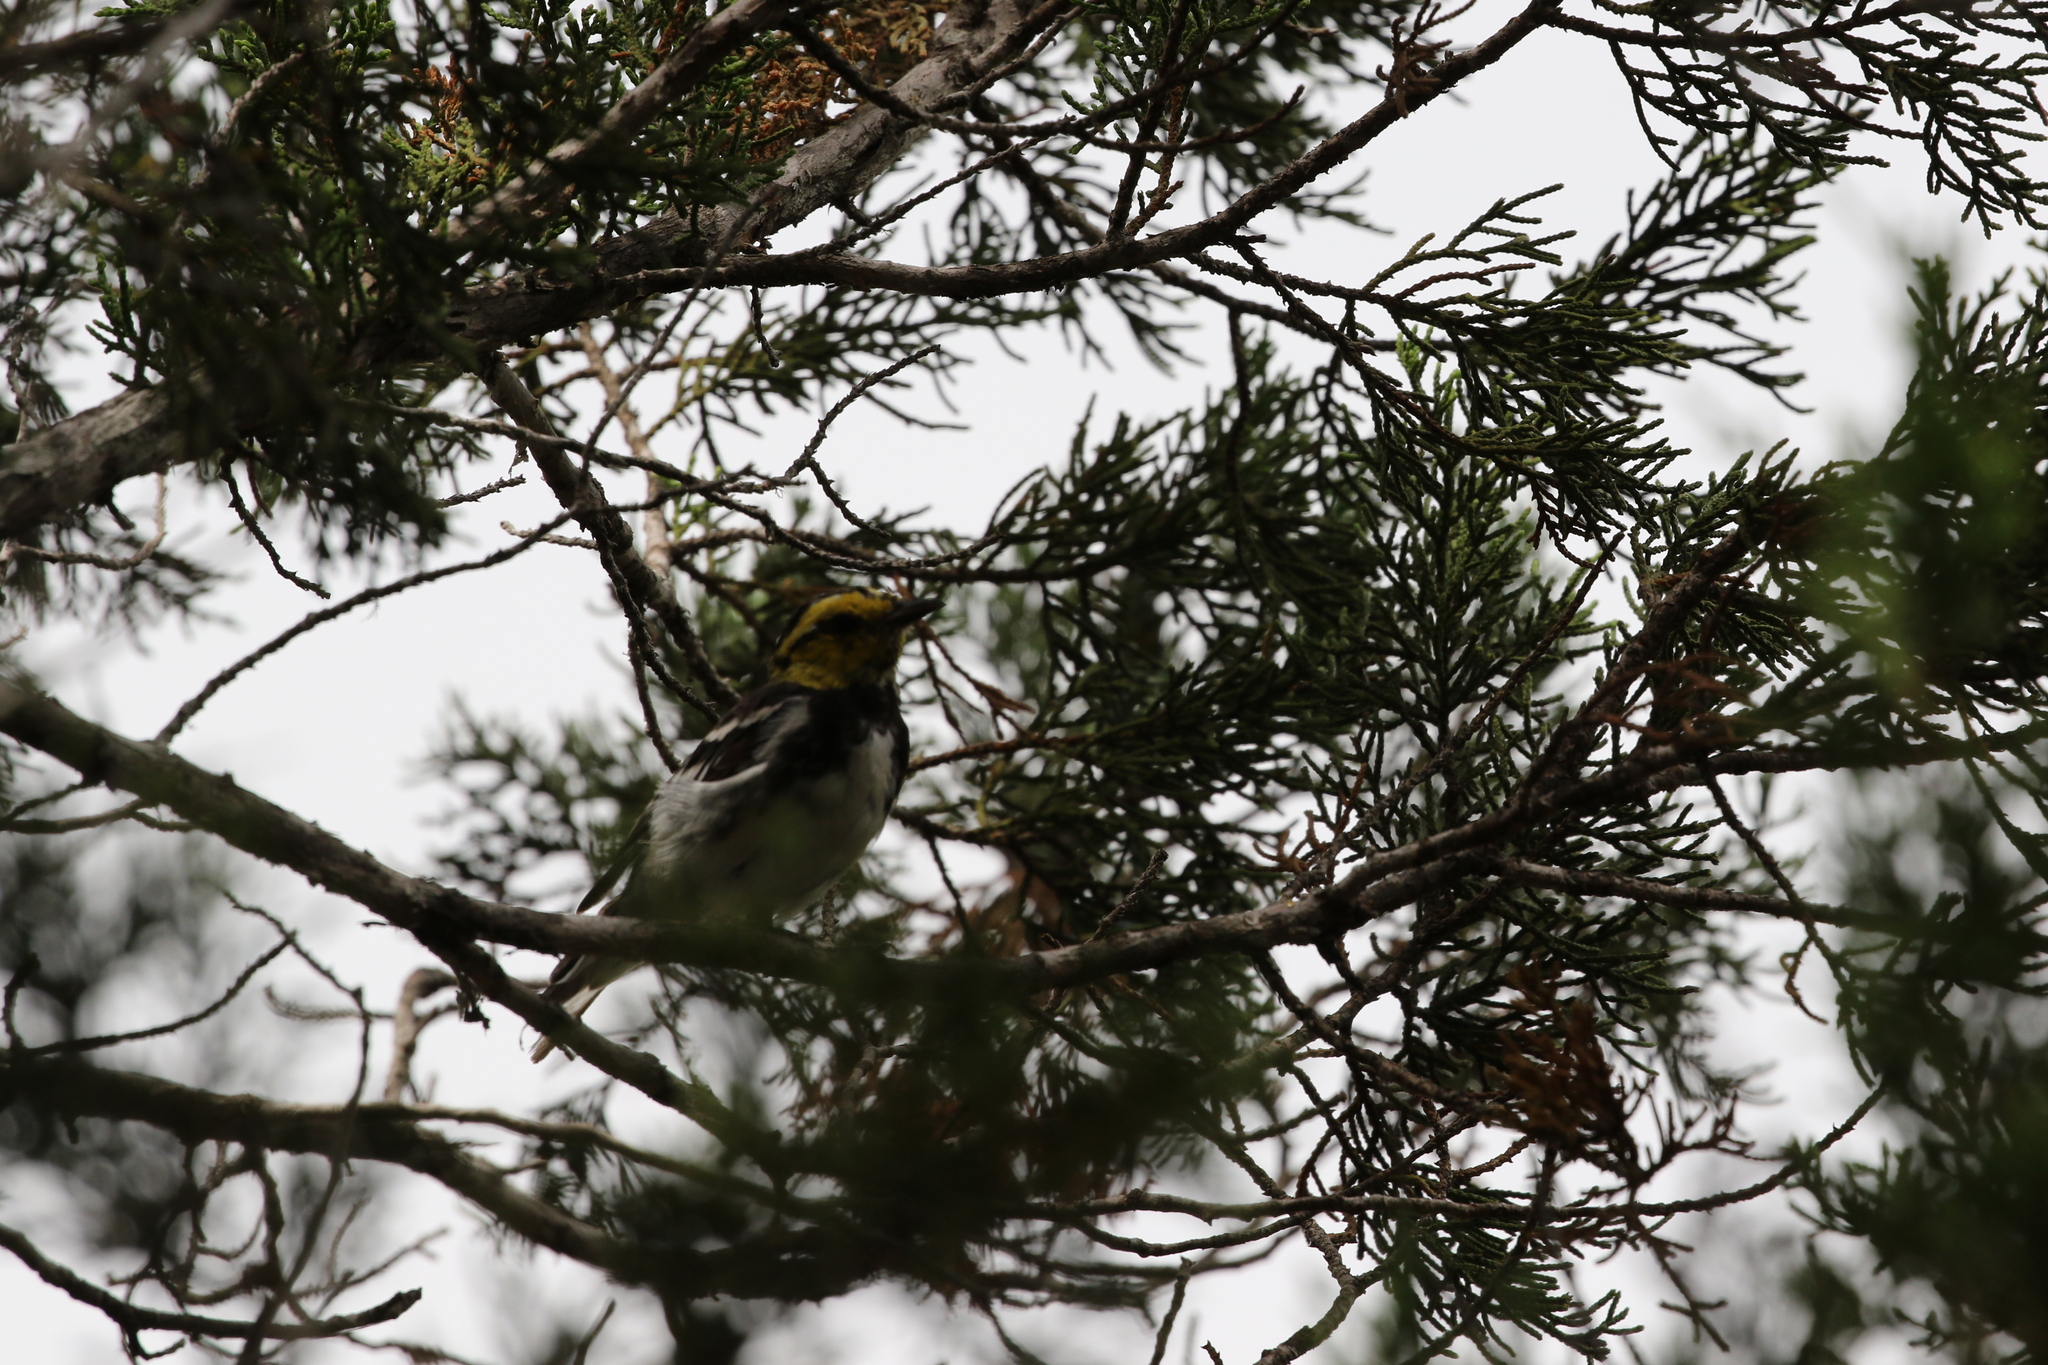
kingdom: Animalia
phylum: Chordata
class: Aves
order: Passeriformes
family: Parulidae
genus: Setophaga
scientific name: Setophaga chrysoparia
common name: Golden-cheeked warbler
